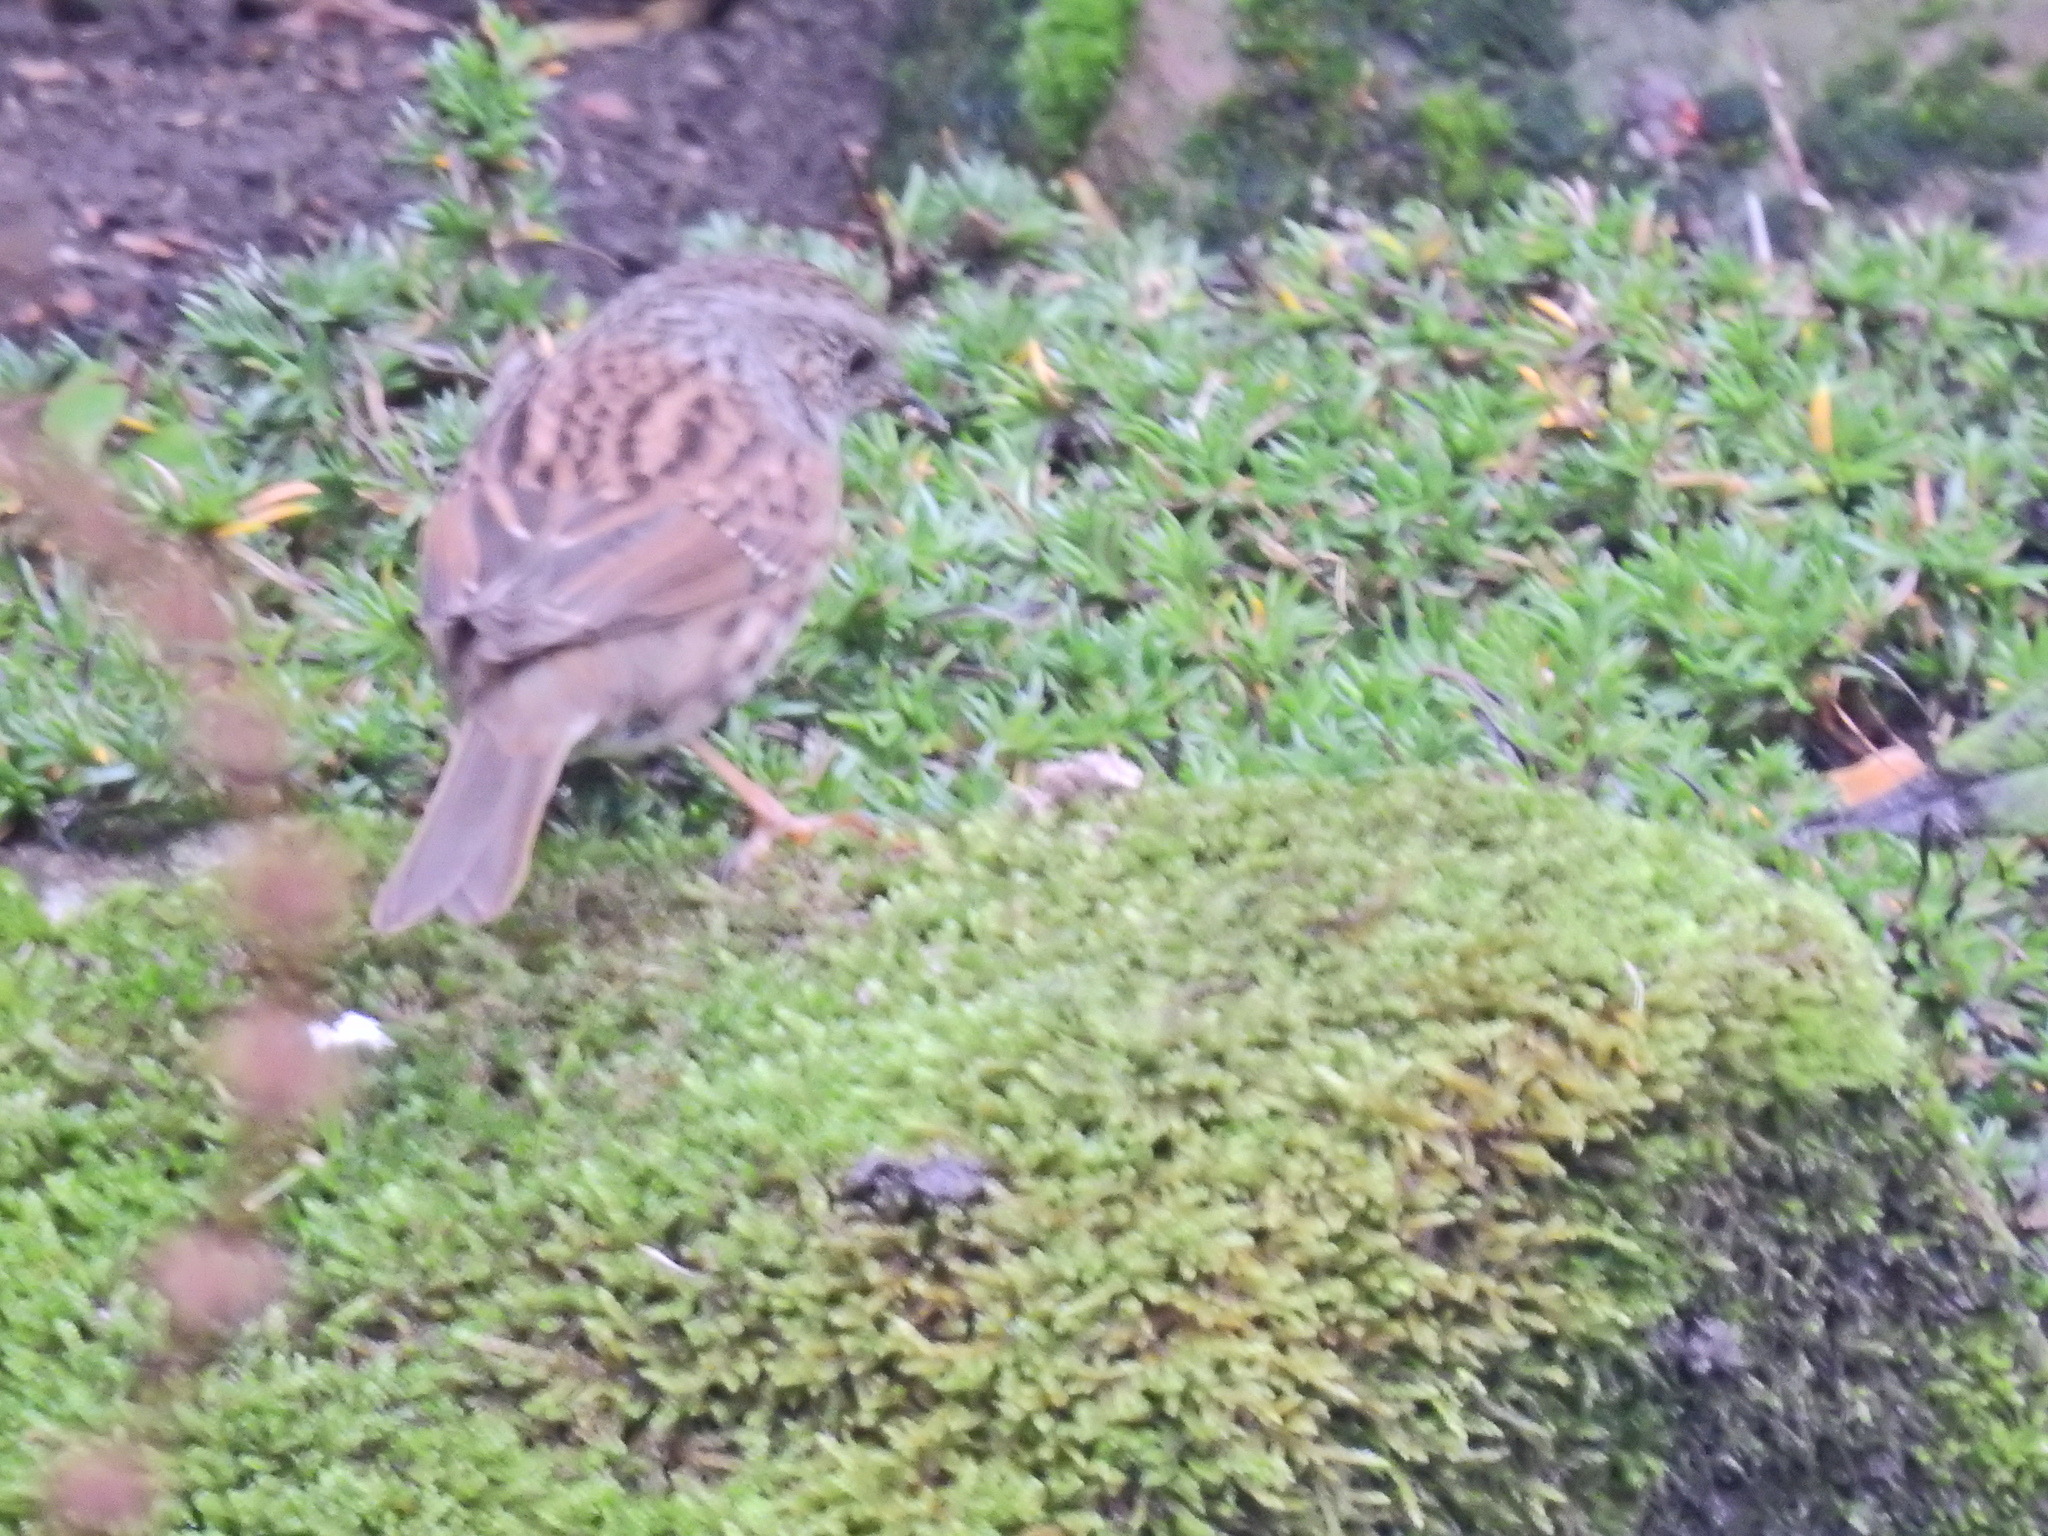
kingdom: Animalia
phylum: Chordata
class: Aves
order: Passeriformes
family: Prunellidae
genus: Prunella
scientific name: Prunella modularis
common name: Dunnock
